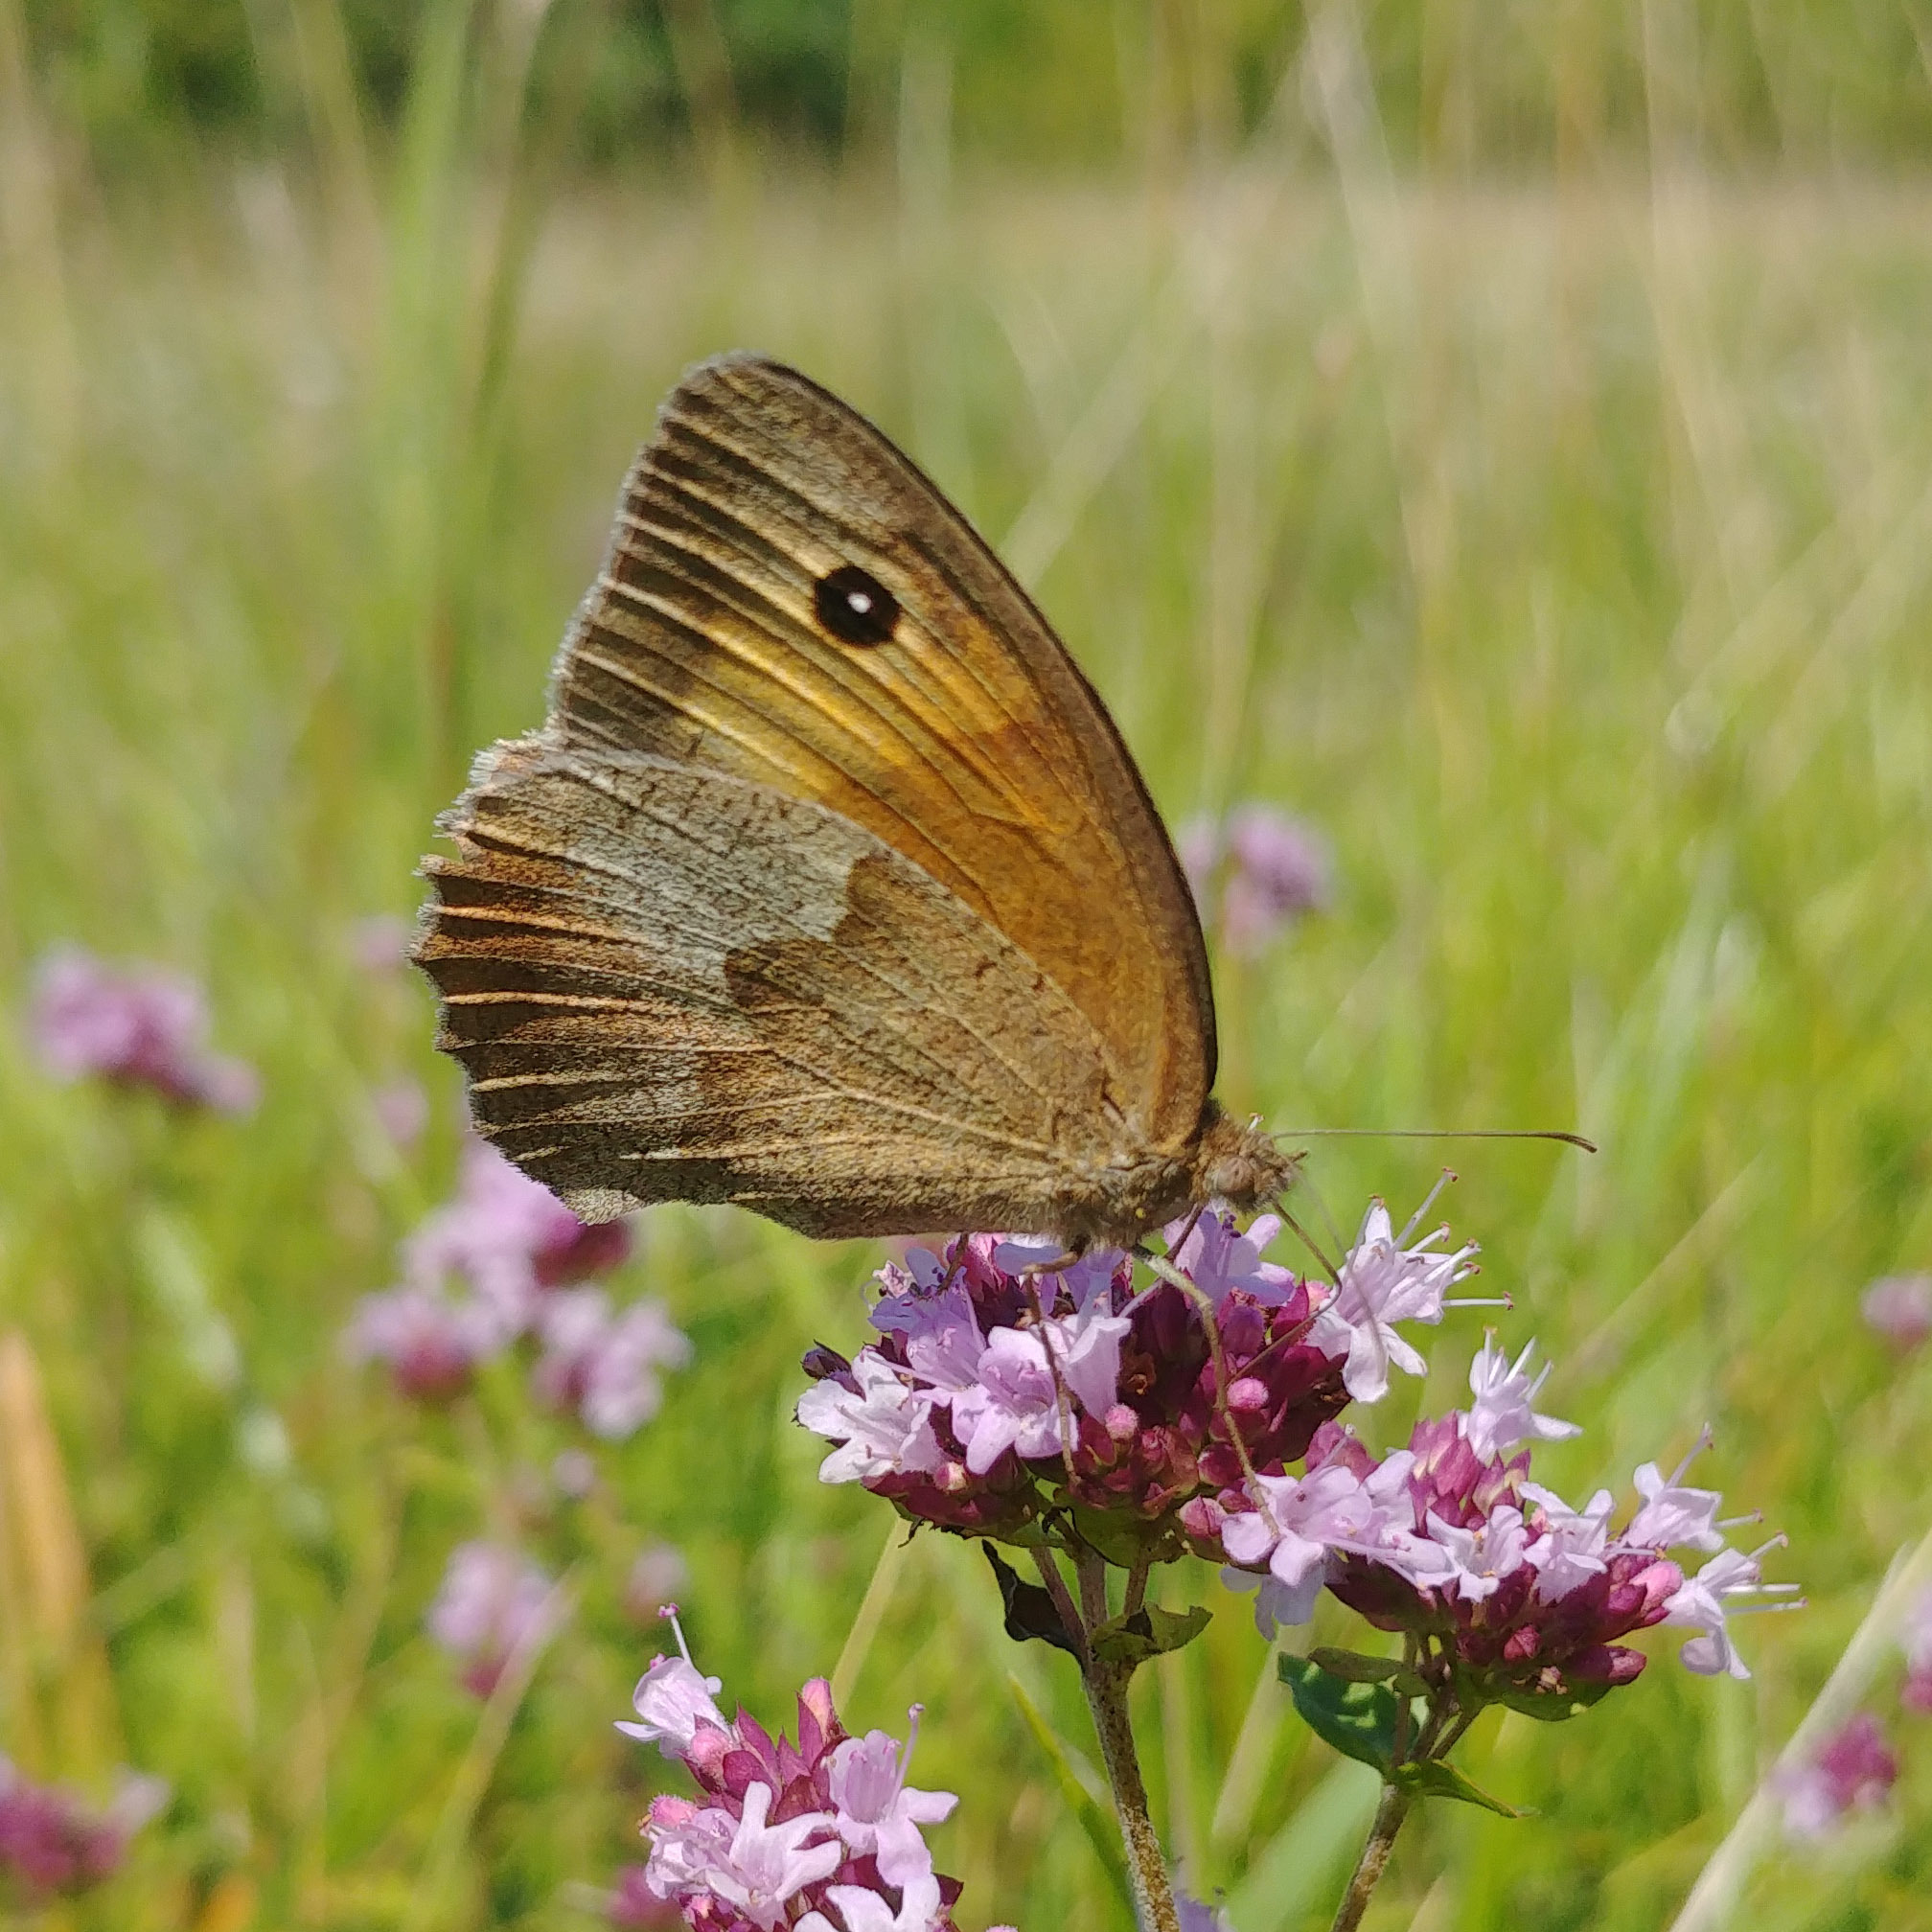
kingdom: Animalia
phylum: Arthropoda
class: Insecta
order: Lepidoptera
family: Nymphalidae
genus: Maniola
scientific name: Maniola jurtina
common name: Meadow brown
